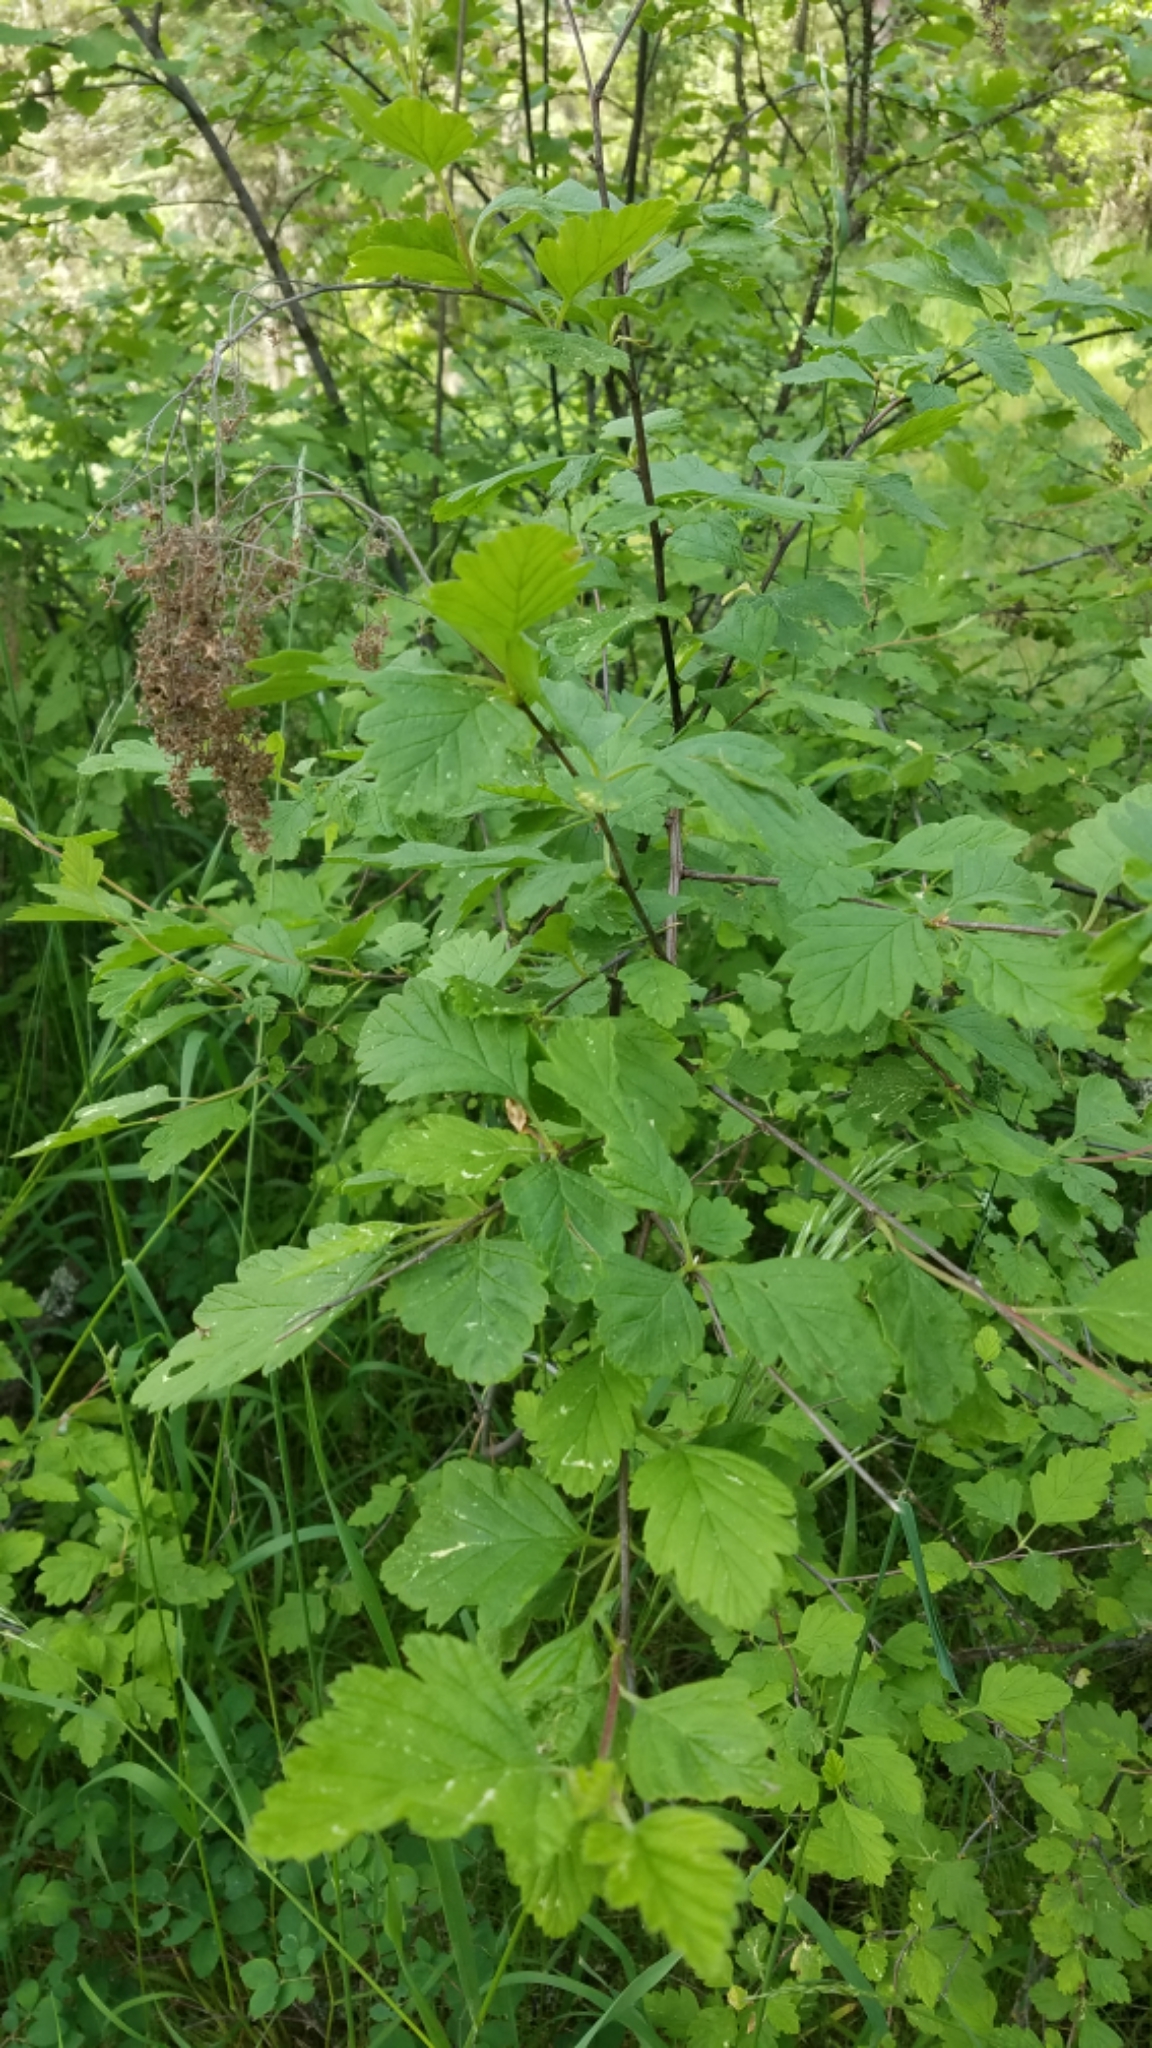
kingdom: Plantae
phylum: Tracheophyta
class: Magnoliopsida
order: Rosales
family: Rosaceae
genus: Holodiscus
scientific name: Holodiscus discolor
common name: Oceanspray
